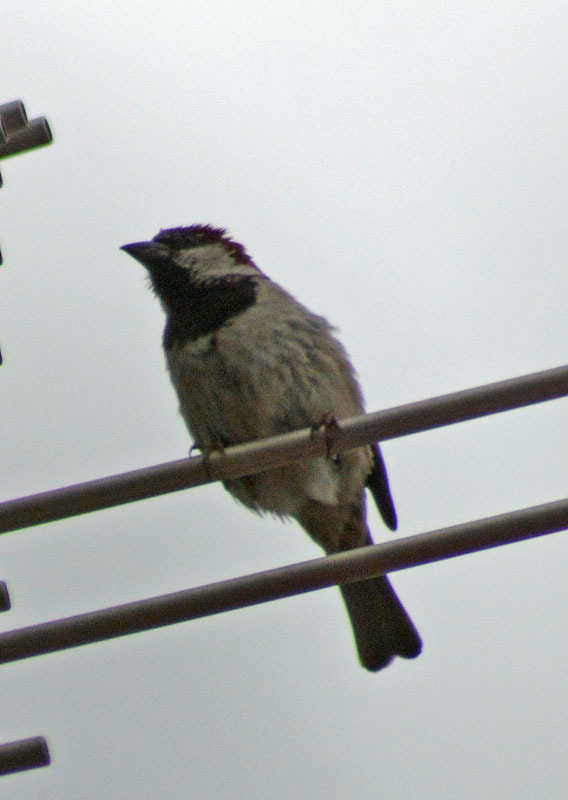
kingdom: Animalia
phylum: Chordata
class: Aves
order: Passeriformes
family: Passeridae
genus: Passer
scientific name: Passer domesticus
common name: House sparrow
